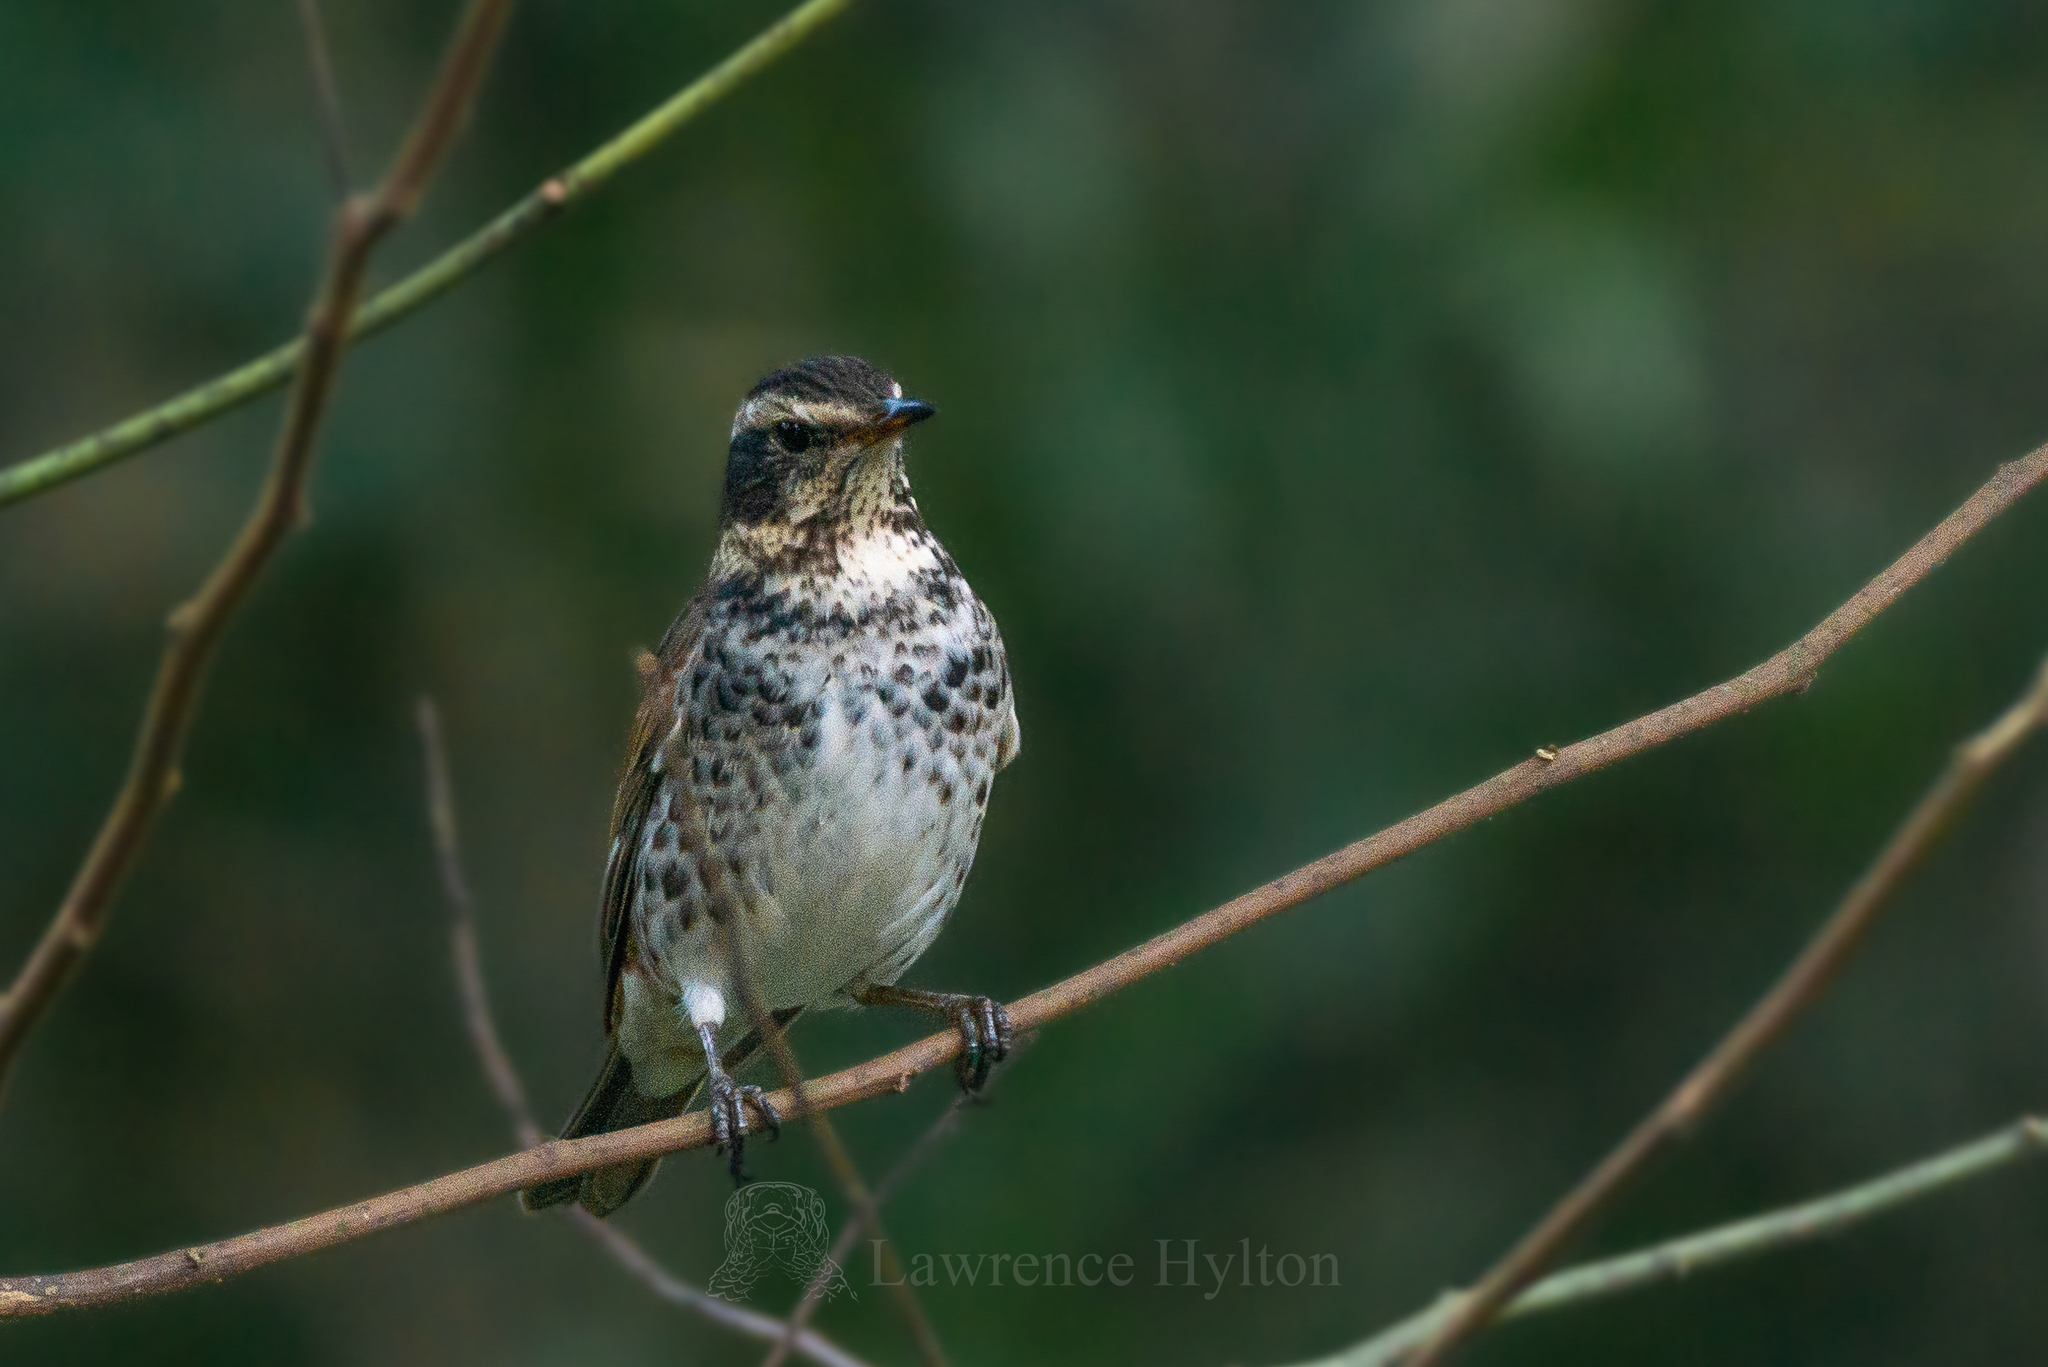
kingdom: Animalia
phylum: Chordata
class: Aves
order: Passeriformes
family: Turdidae
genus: Turdus
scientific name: Turdus eunomus
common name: Dusky thrush
